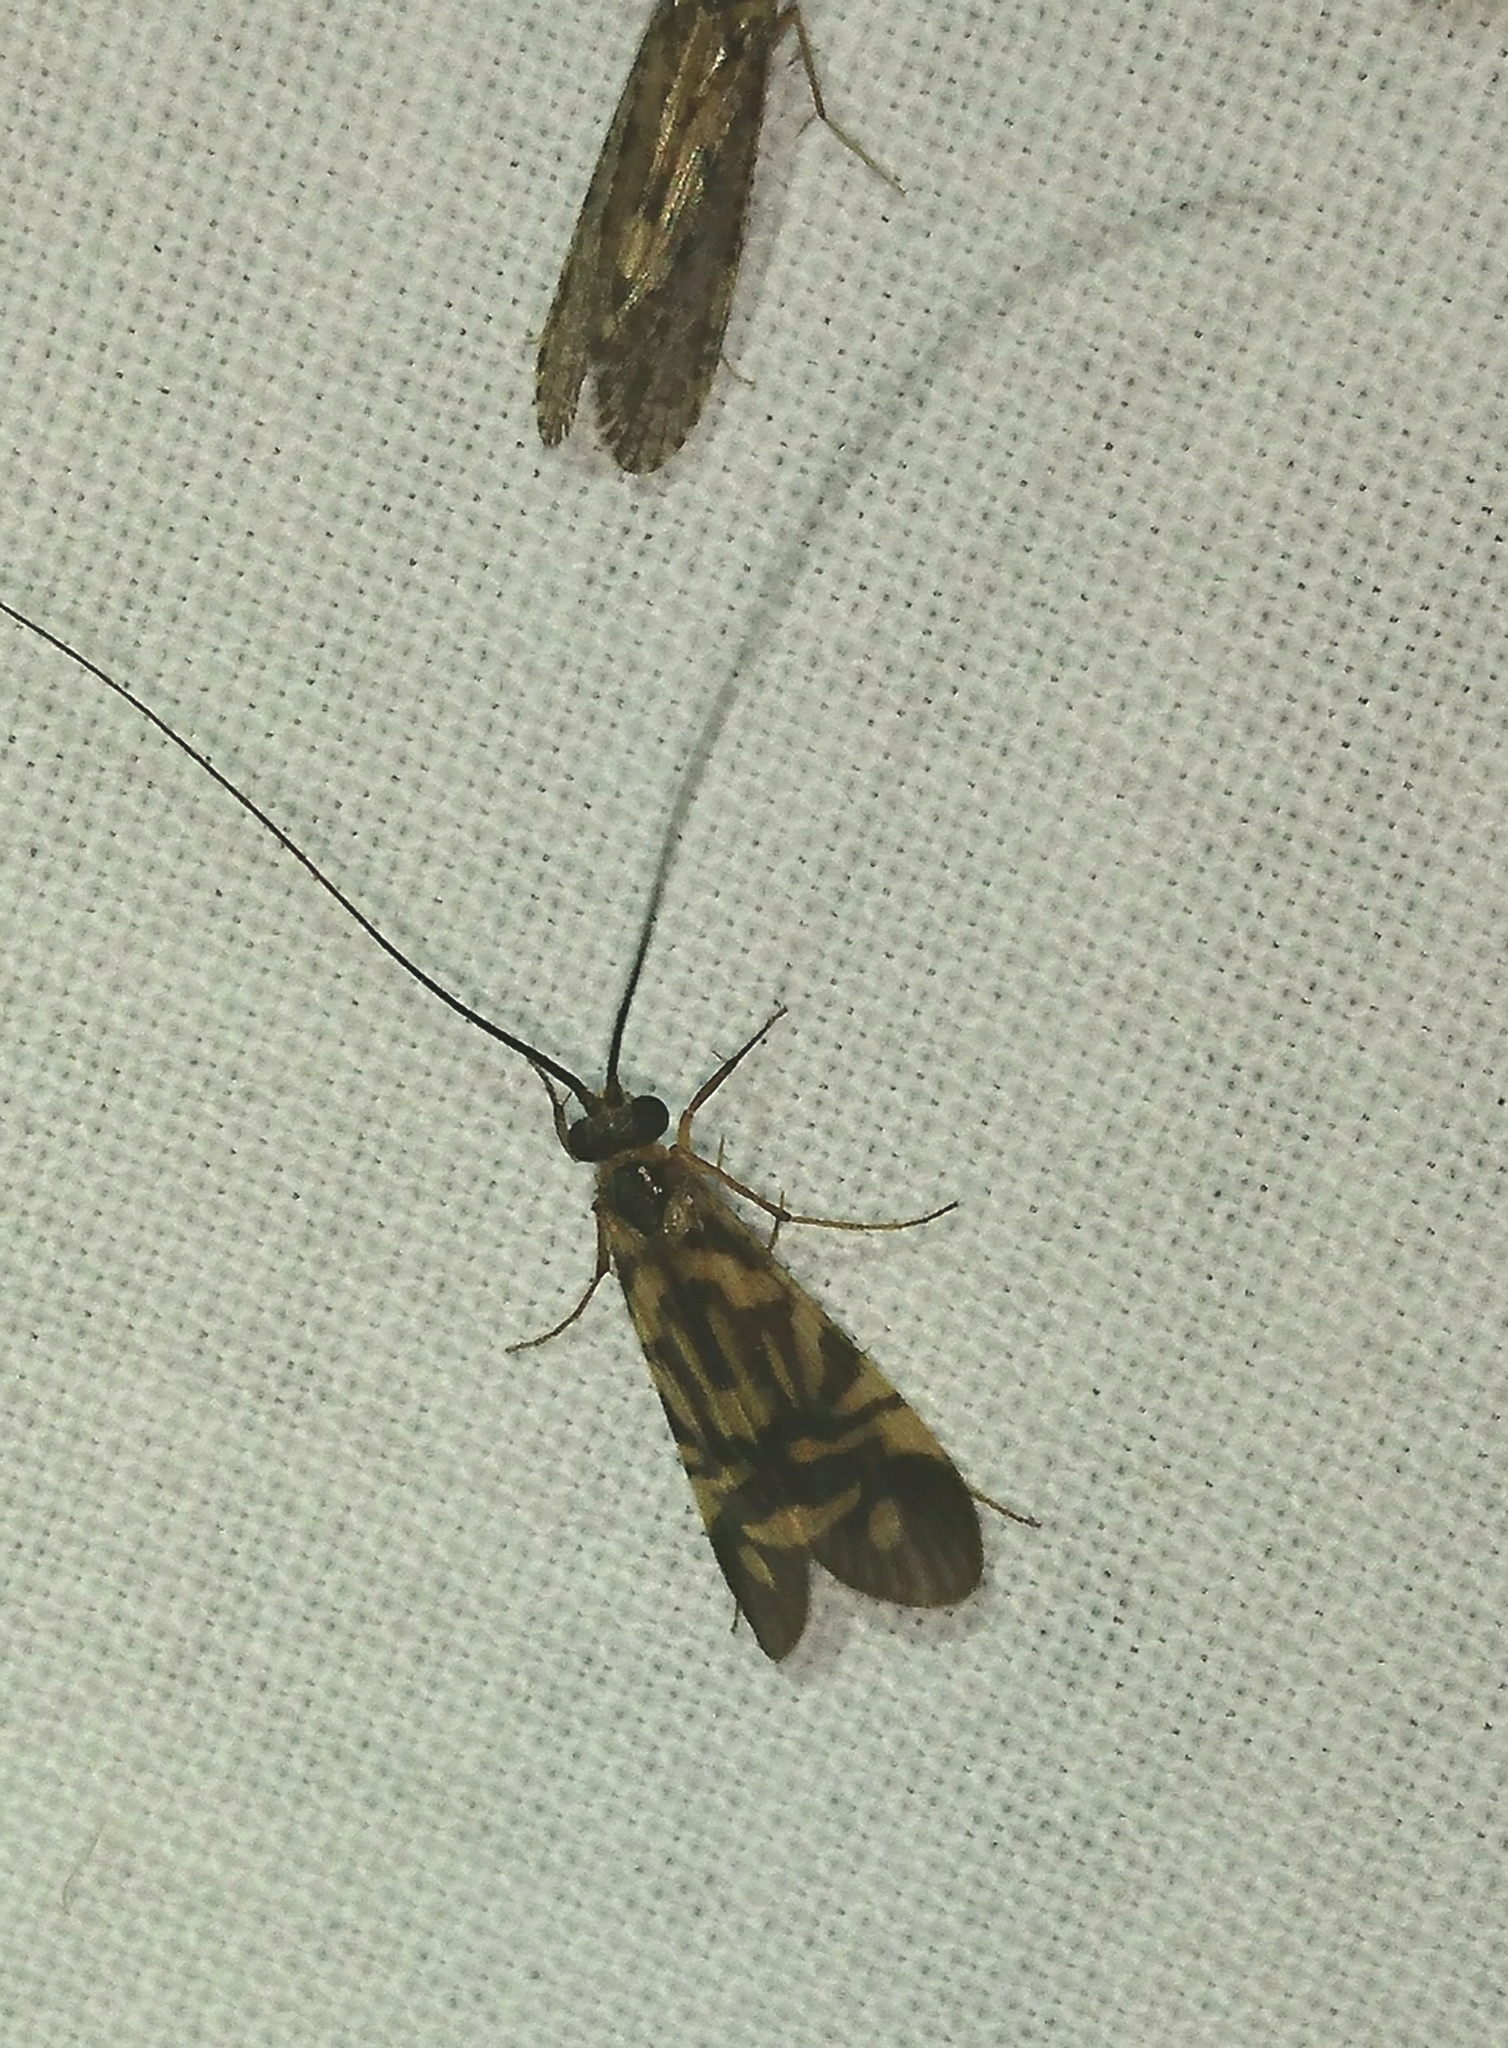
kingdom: Animalia
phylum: Arthropoda
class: Insecta
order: Trichoptera
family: Hydropsychidae
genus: Macrostemum
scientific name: Macrostemum carolina
